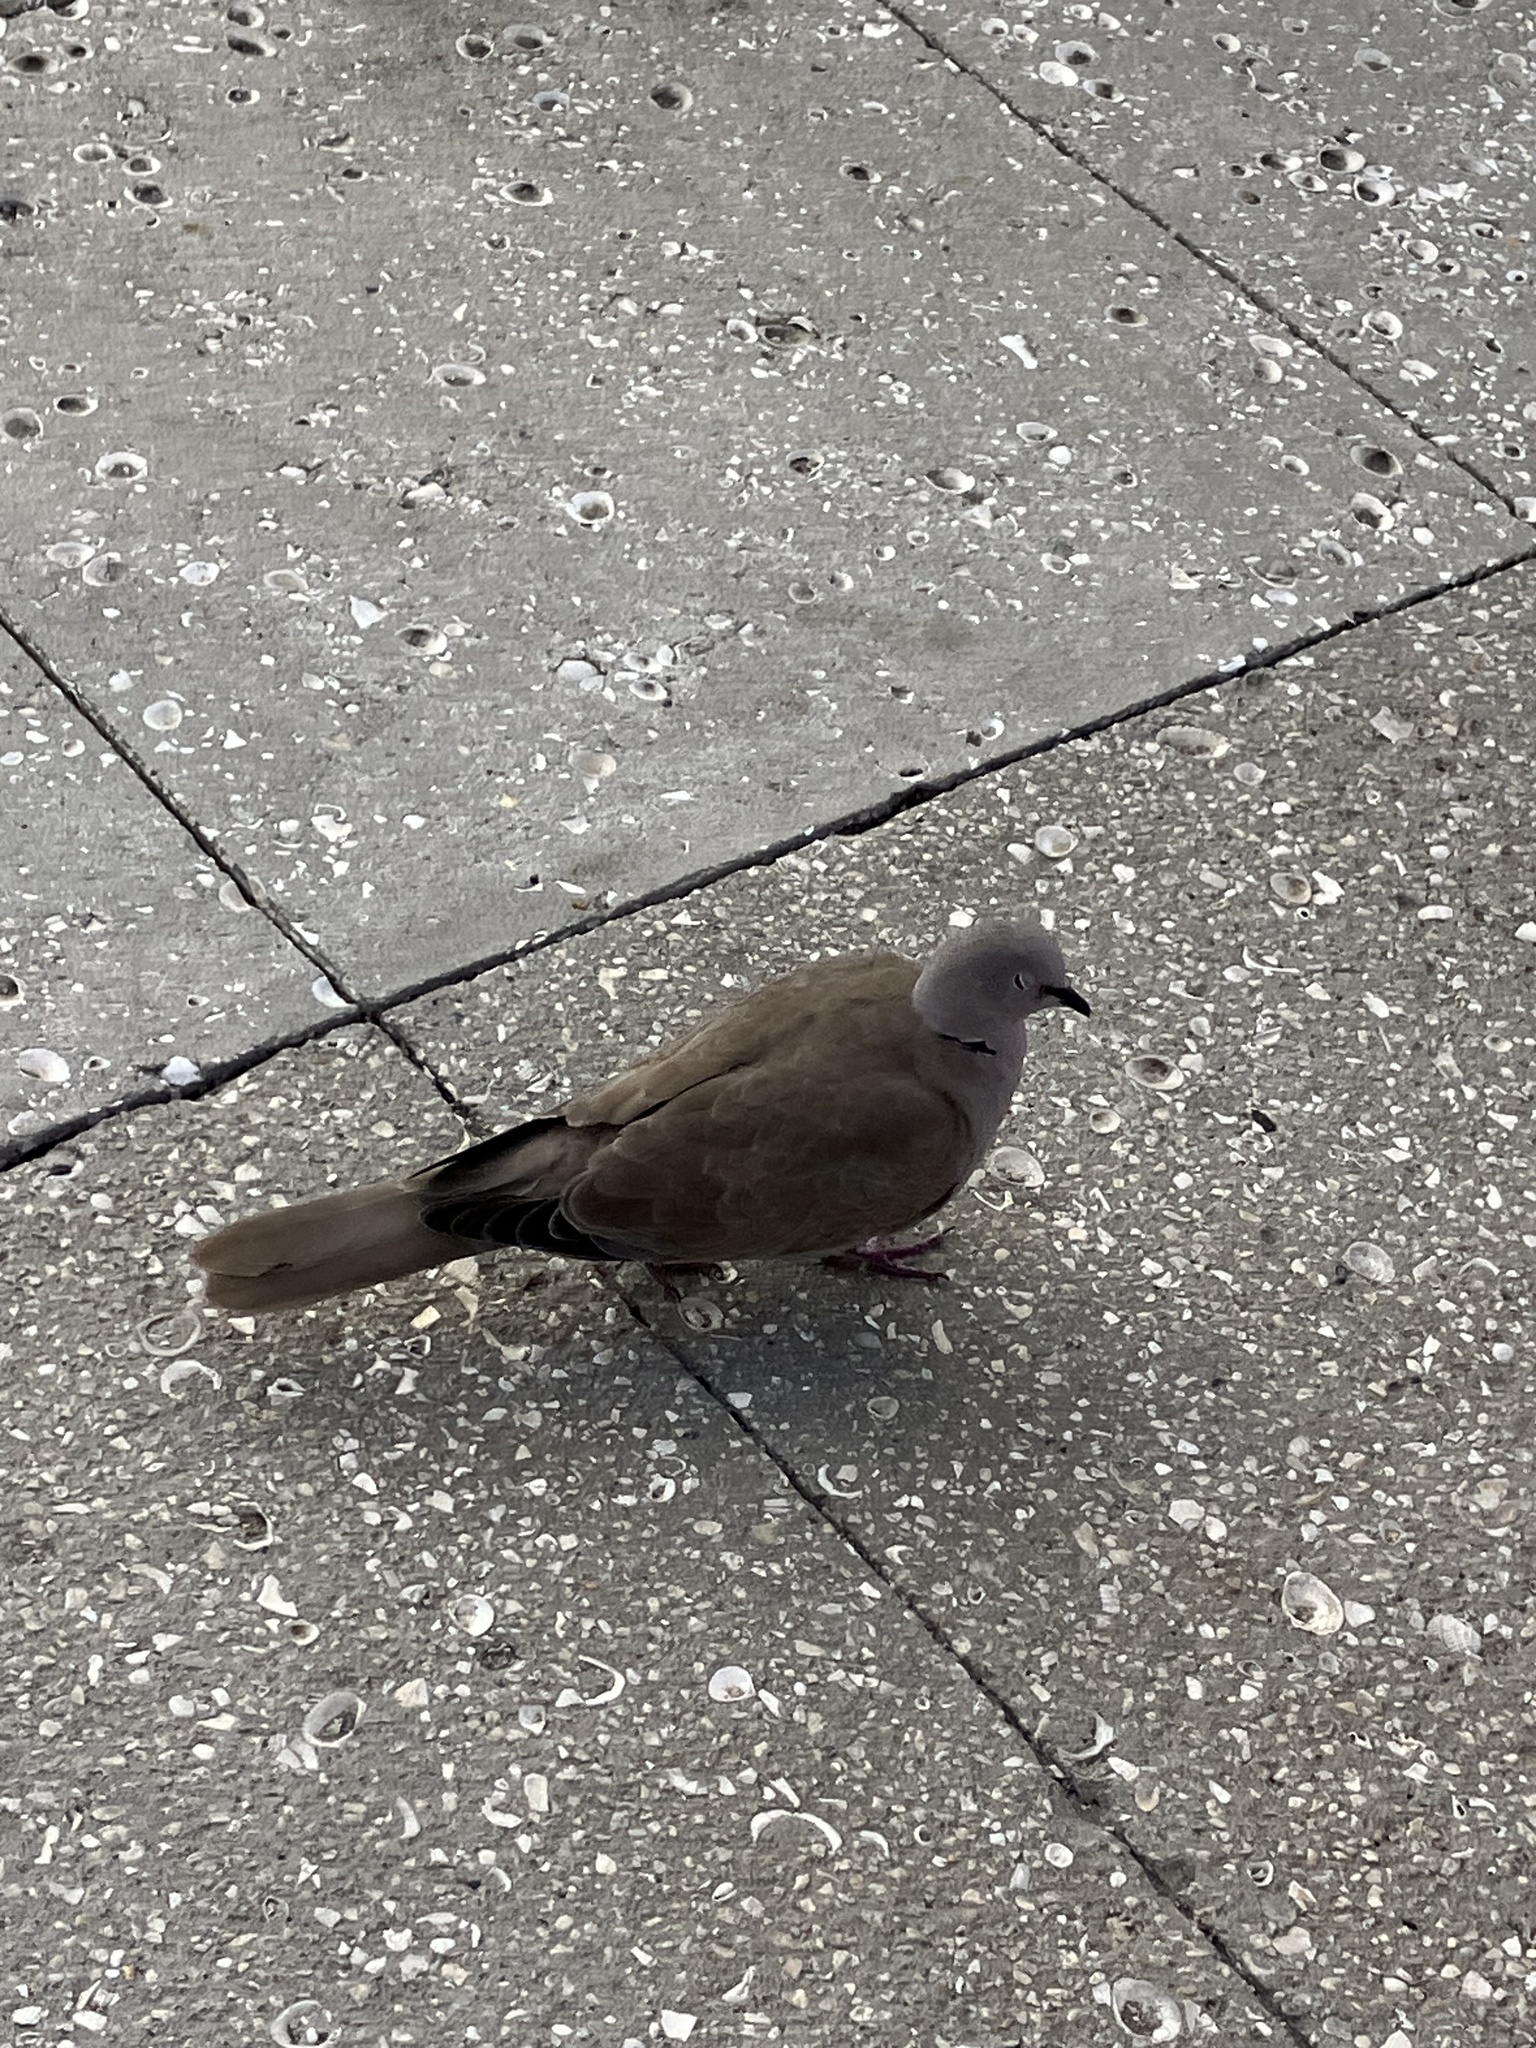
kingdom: Animalia
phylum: Chordata
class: Aves
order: Columbiformes
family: Columbidae
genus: Streptopelia
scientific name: Streptopelia decaocto
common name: Eurasian collared dove
